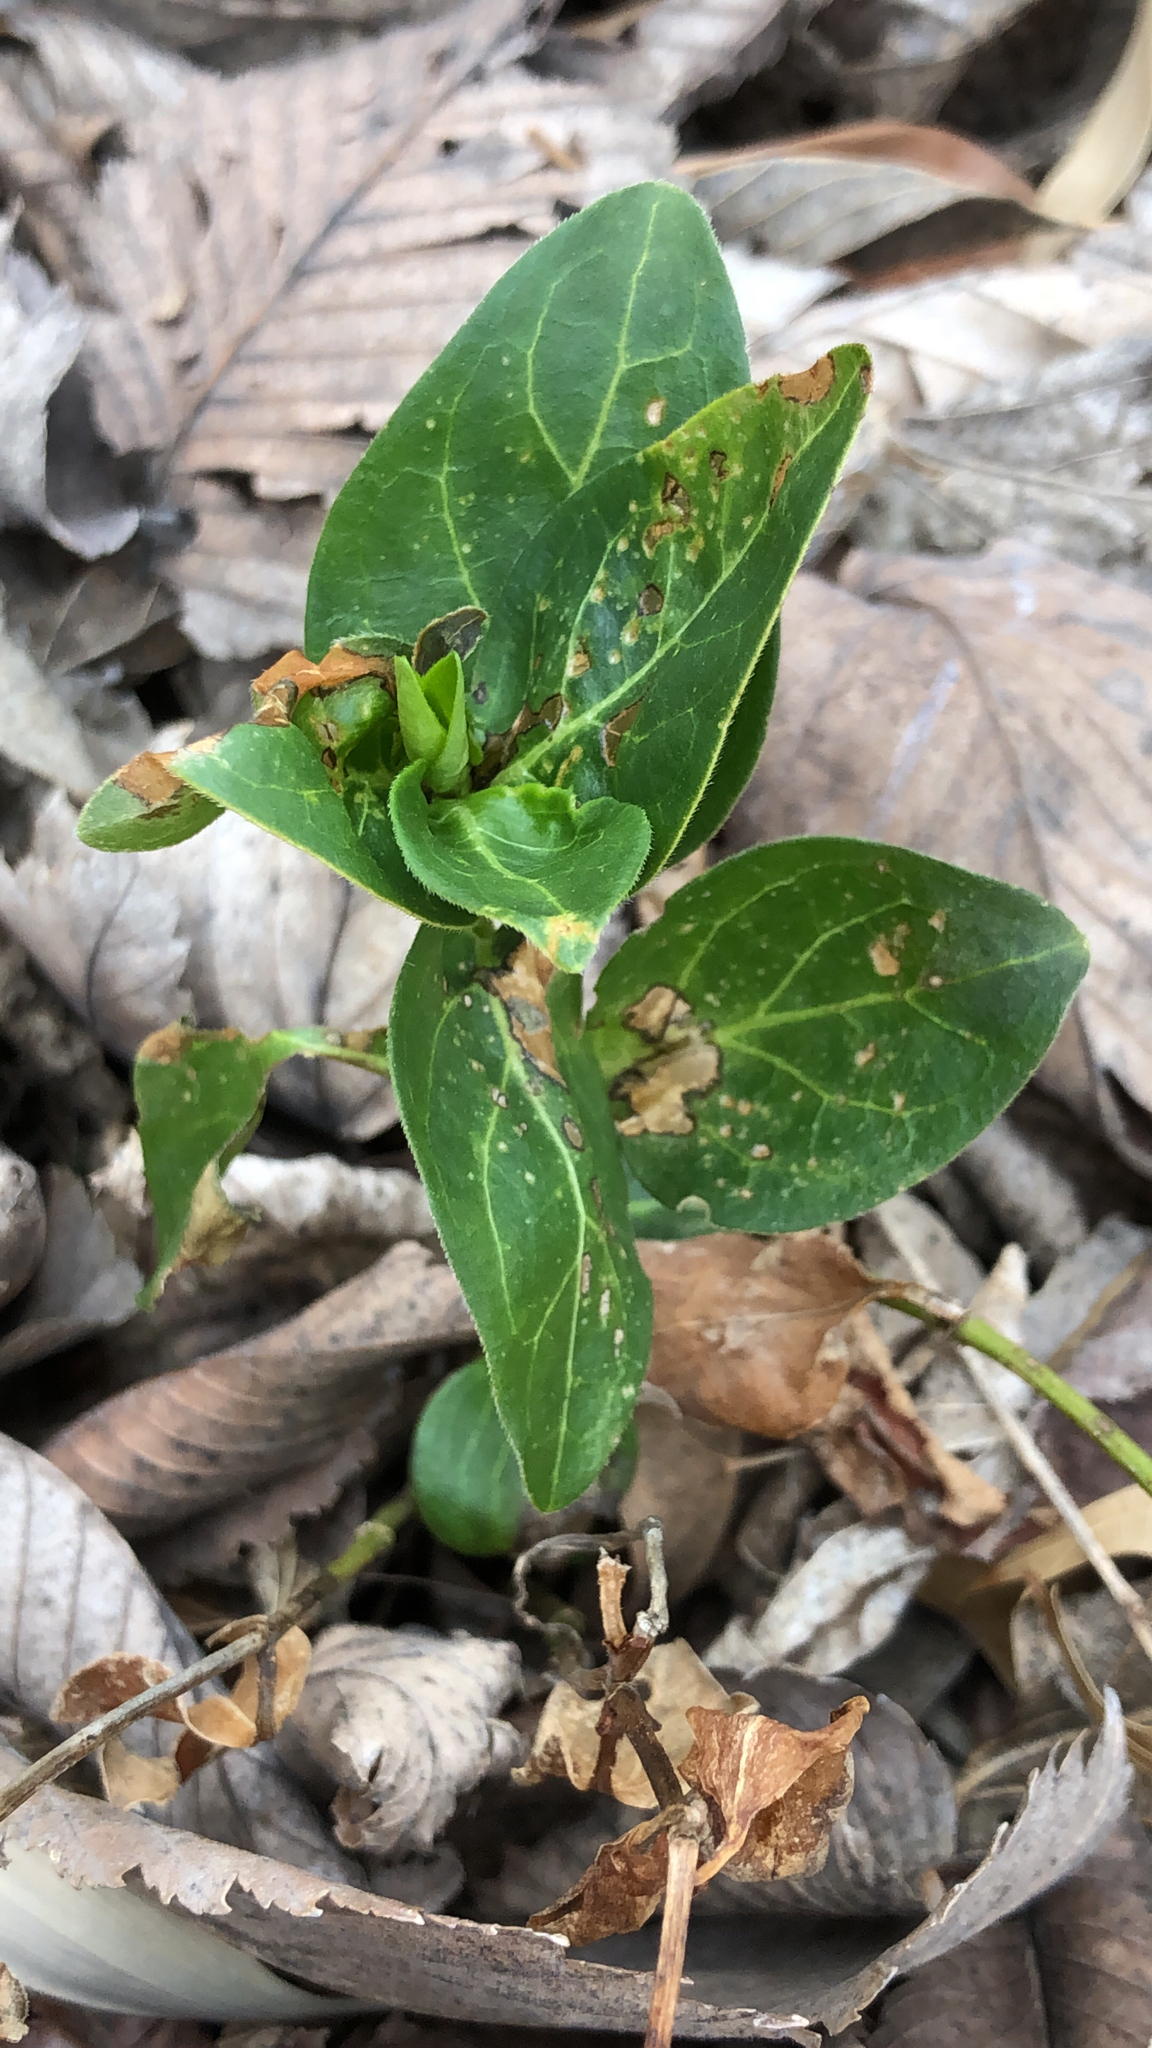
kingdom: Plantae
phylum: Tracheophyta
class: Magnoliopsida
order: Gentianales
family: Apocynaceae
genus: Vinca
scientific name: Vinca major
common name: Greater periwinkle
